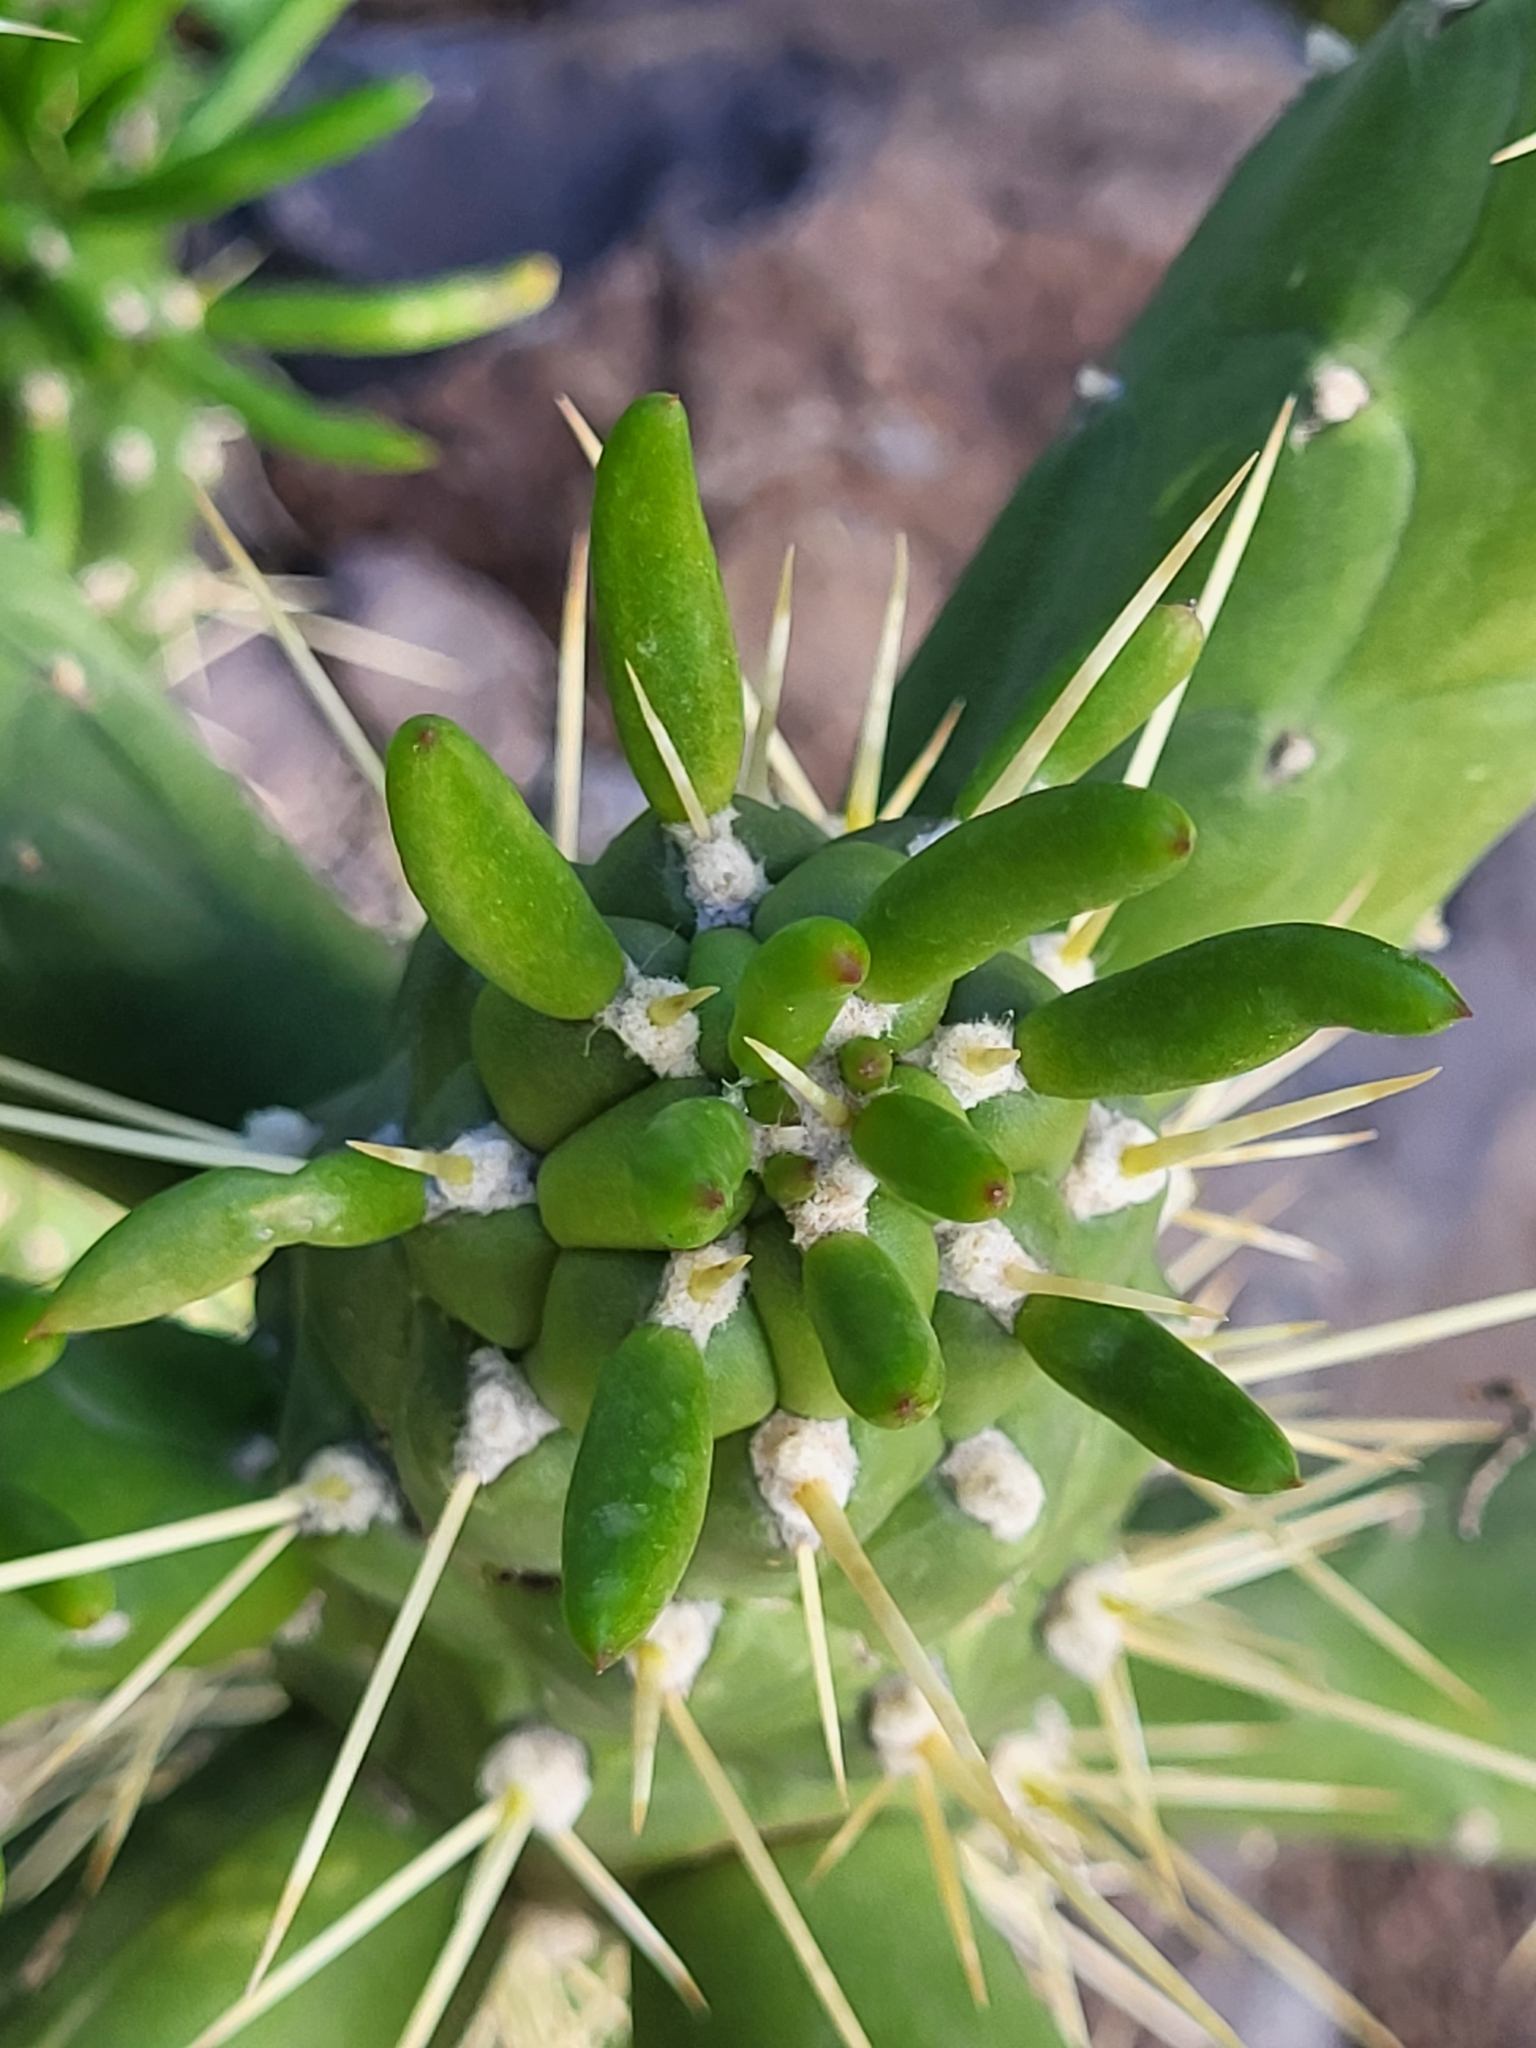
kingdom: Plantae
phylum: Tracheophyta
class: Magnoliopsida
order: Caryophyllales
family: Cactaceae
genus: Austrocylindropuntia
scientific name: Austrocylindropuntia subulata
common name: Eve's needle cactus
